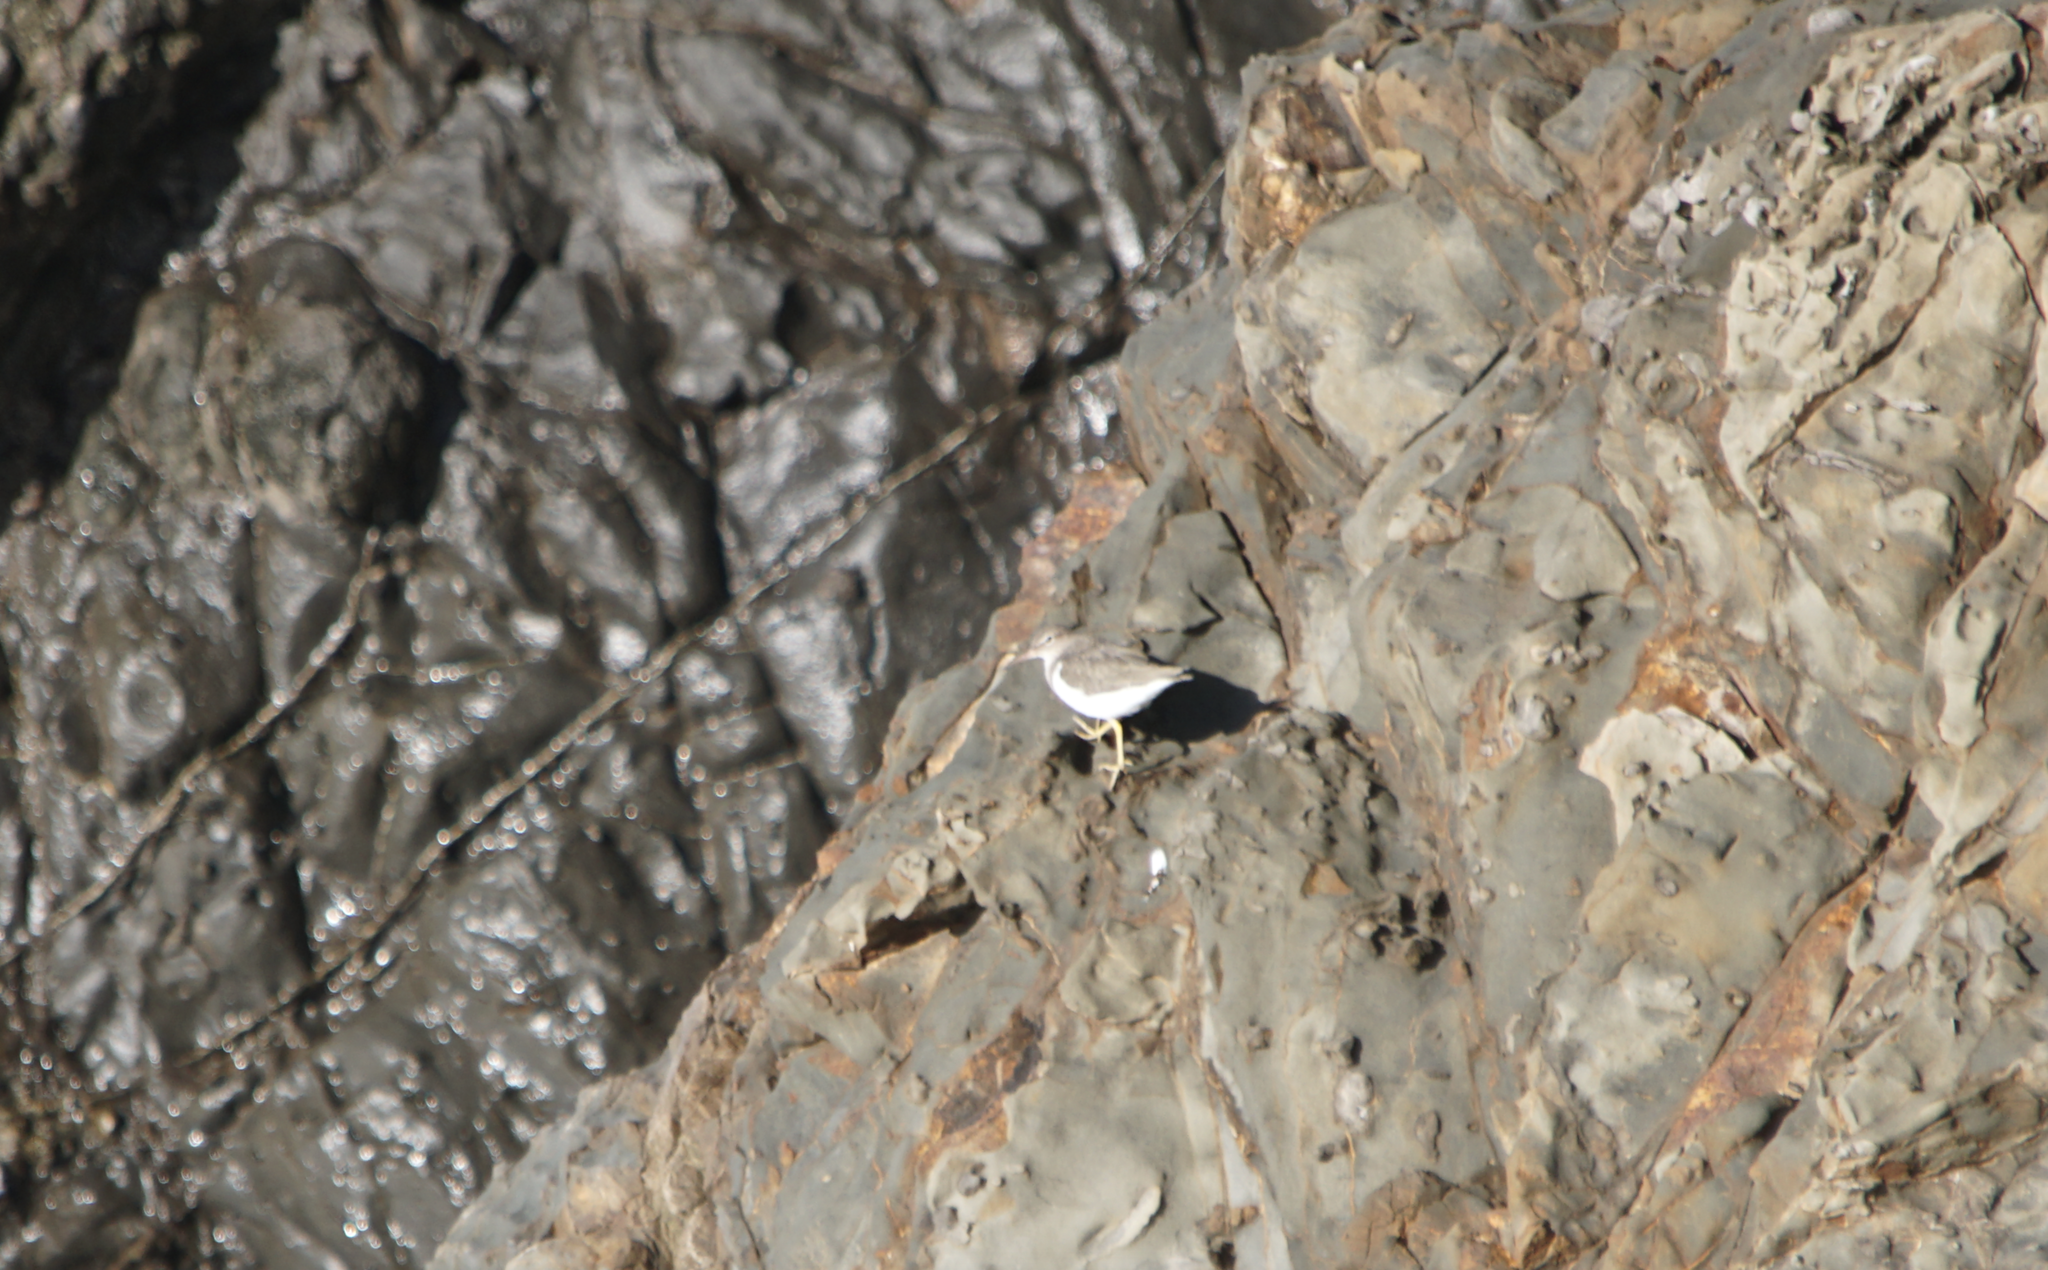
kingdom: Animalia
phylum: Chordata
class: Aves
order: Charadriiformes
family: Scolopacidae
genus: Actitis
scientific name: Actitis macularius
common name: Spotted sandpiper
